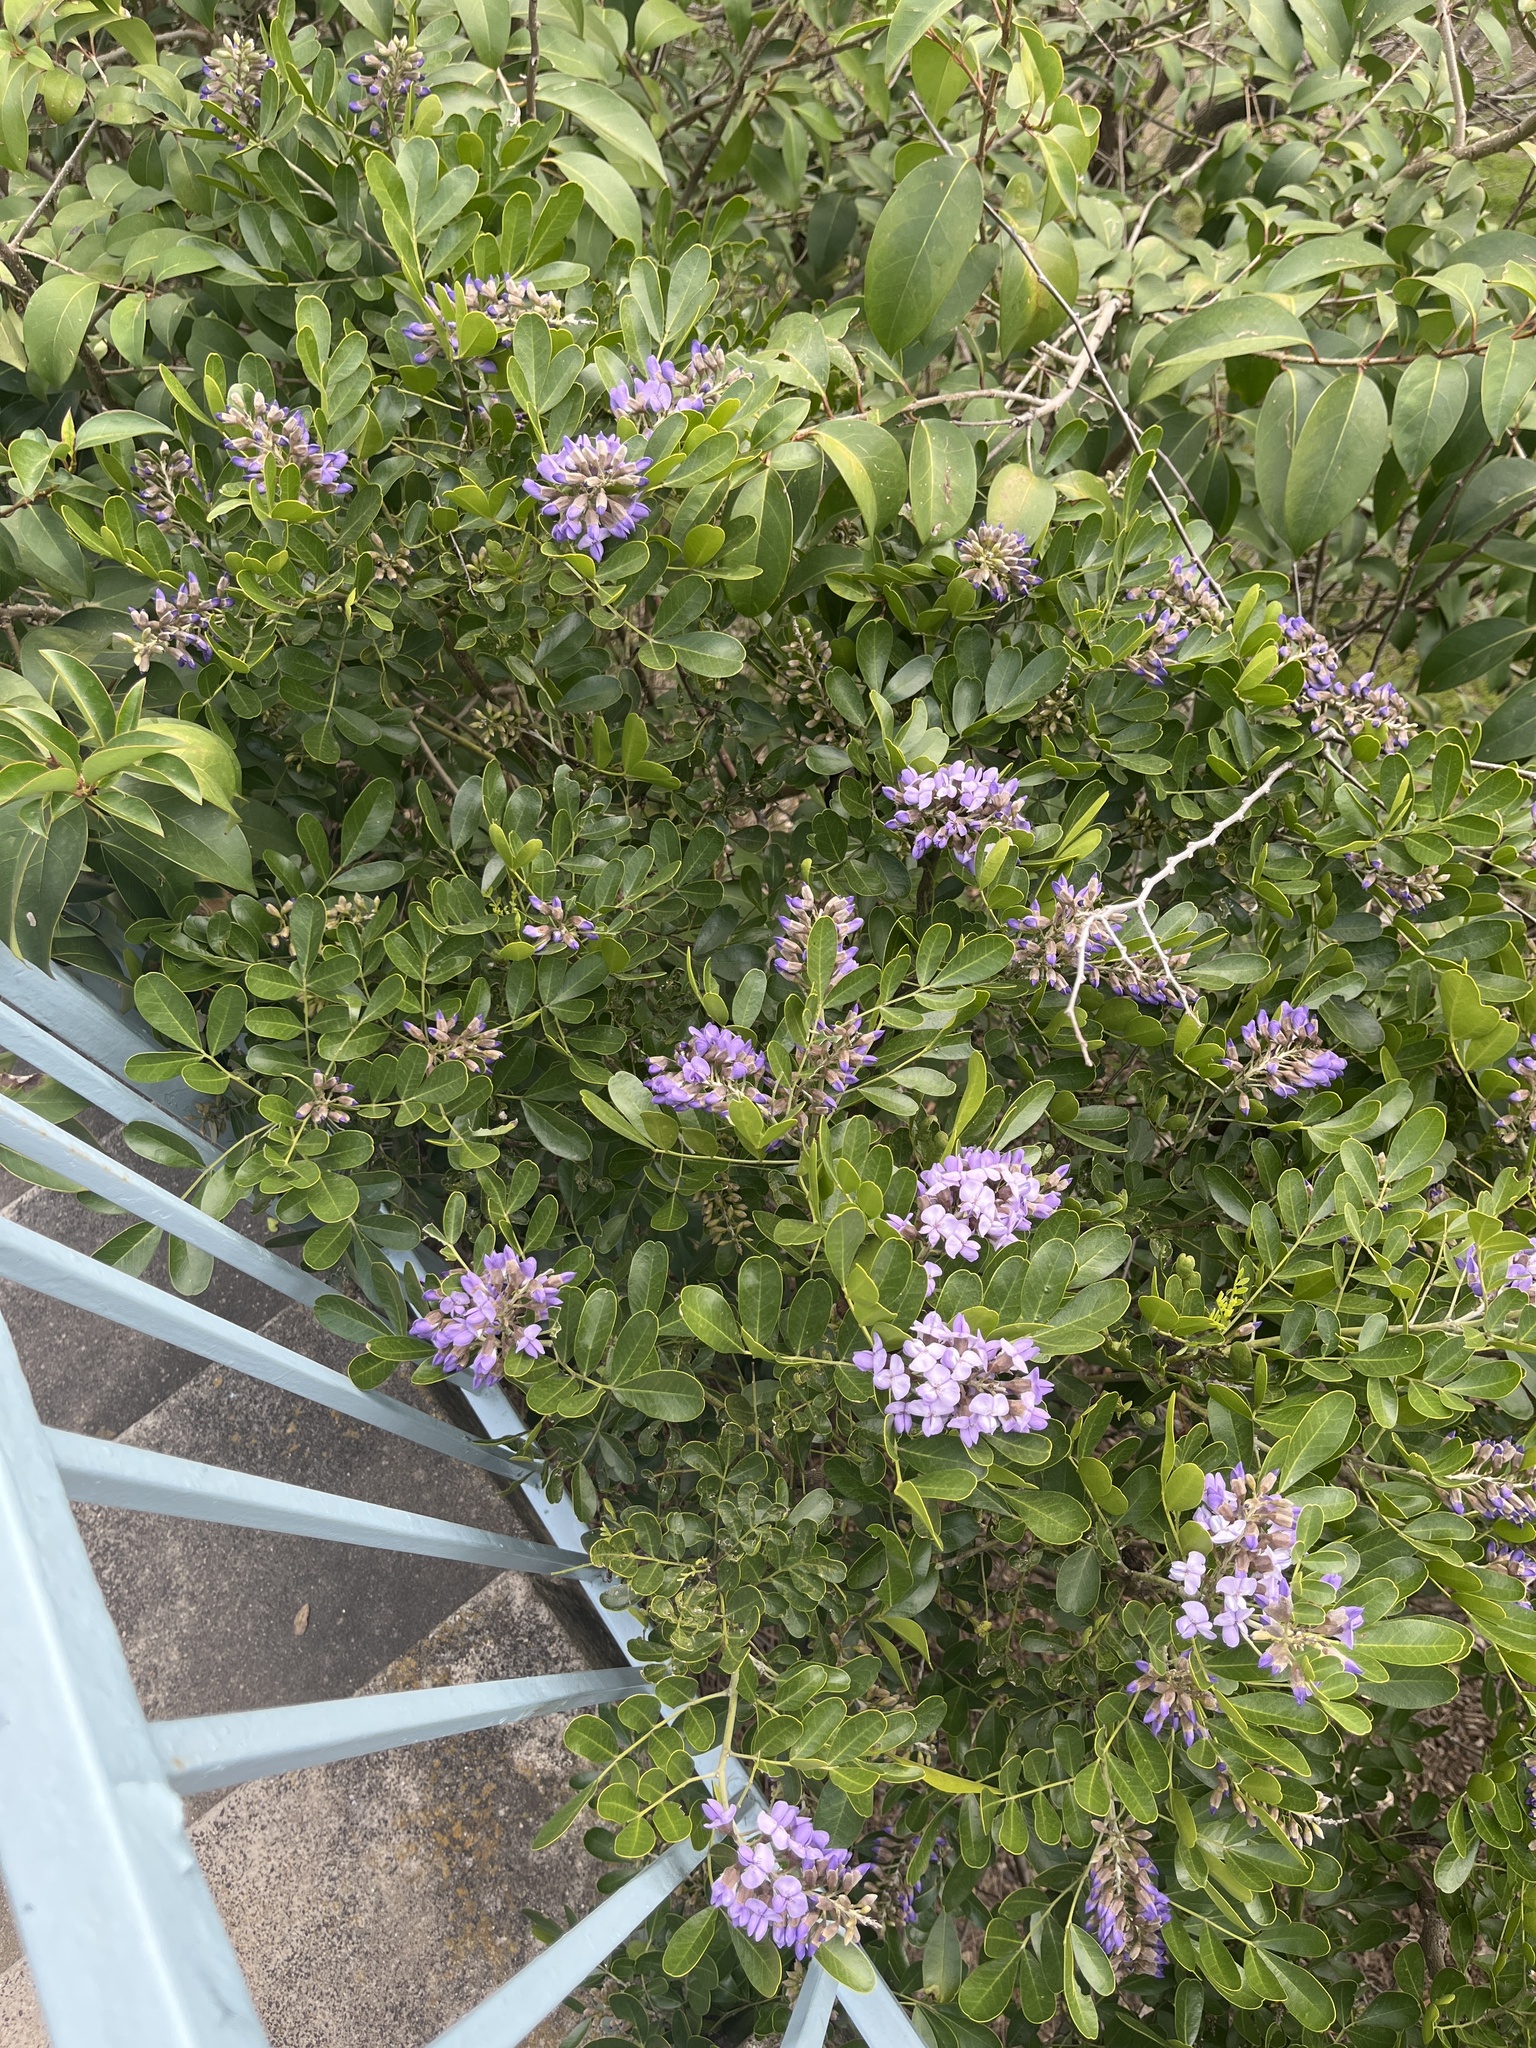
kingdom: Plantae
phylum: Tracheophyta
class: Magnoliopsida
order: Fabales
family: Fabaceae
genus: Dermatophyllum
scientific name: Dermatophyllum secundiflorum
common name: Texas-mountain-laurel
